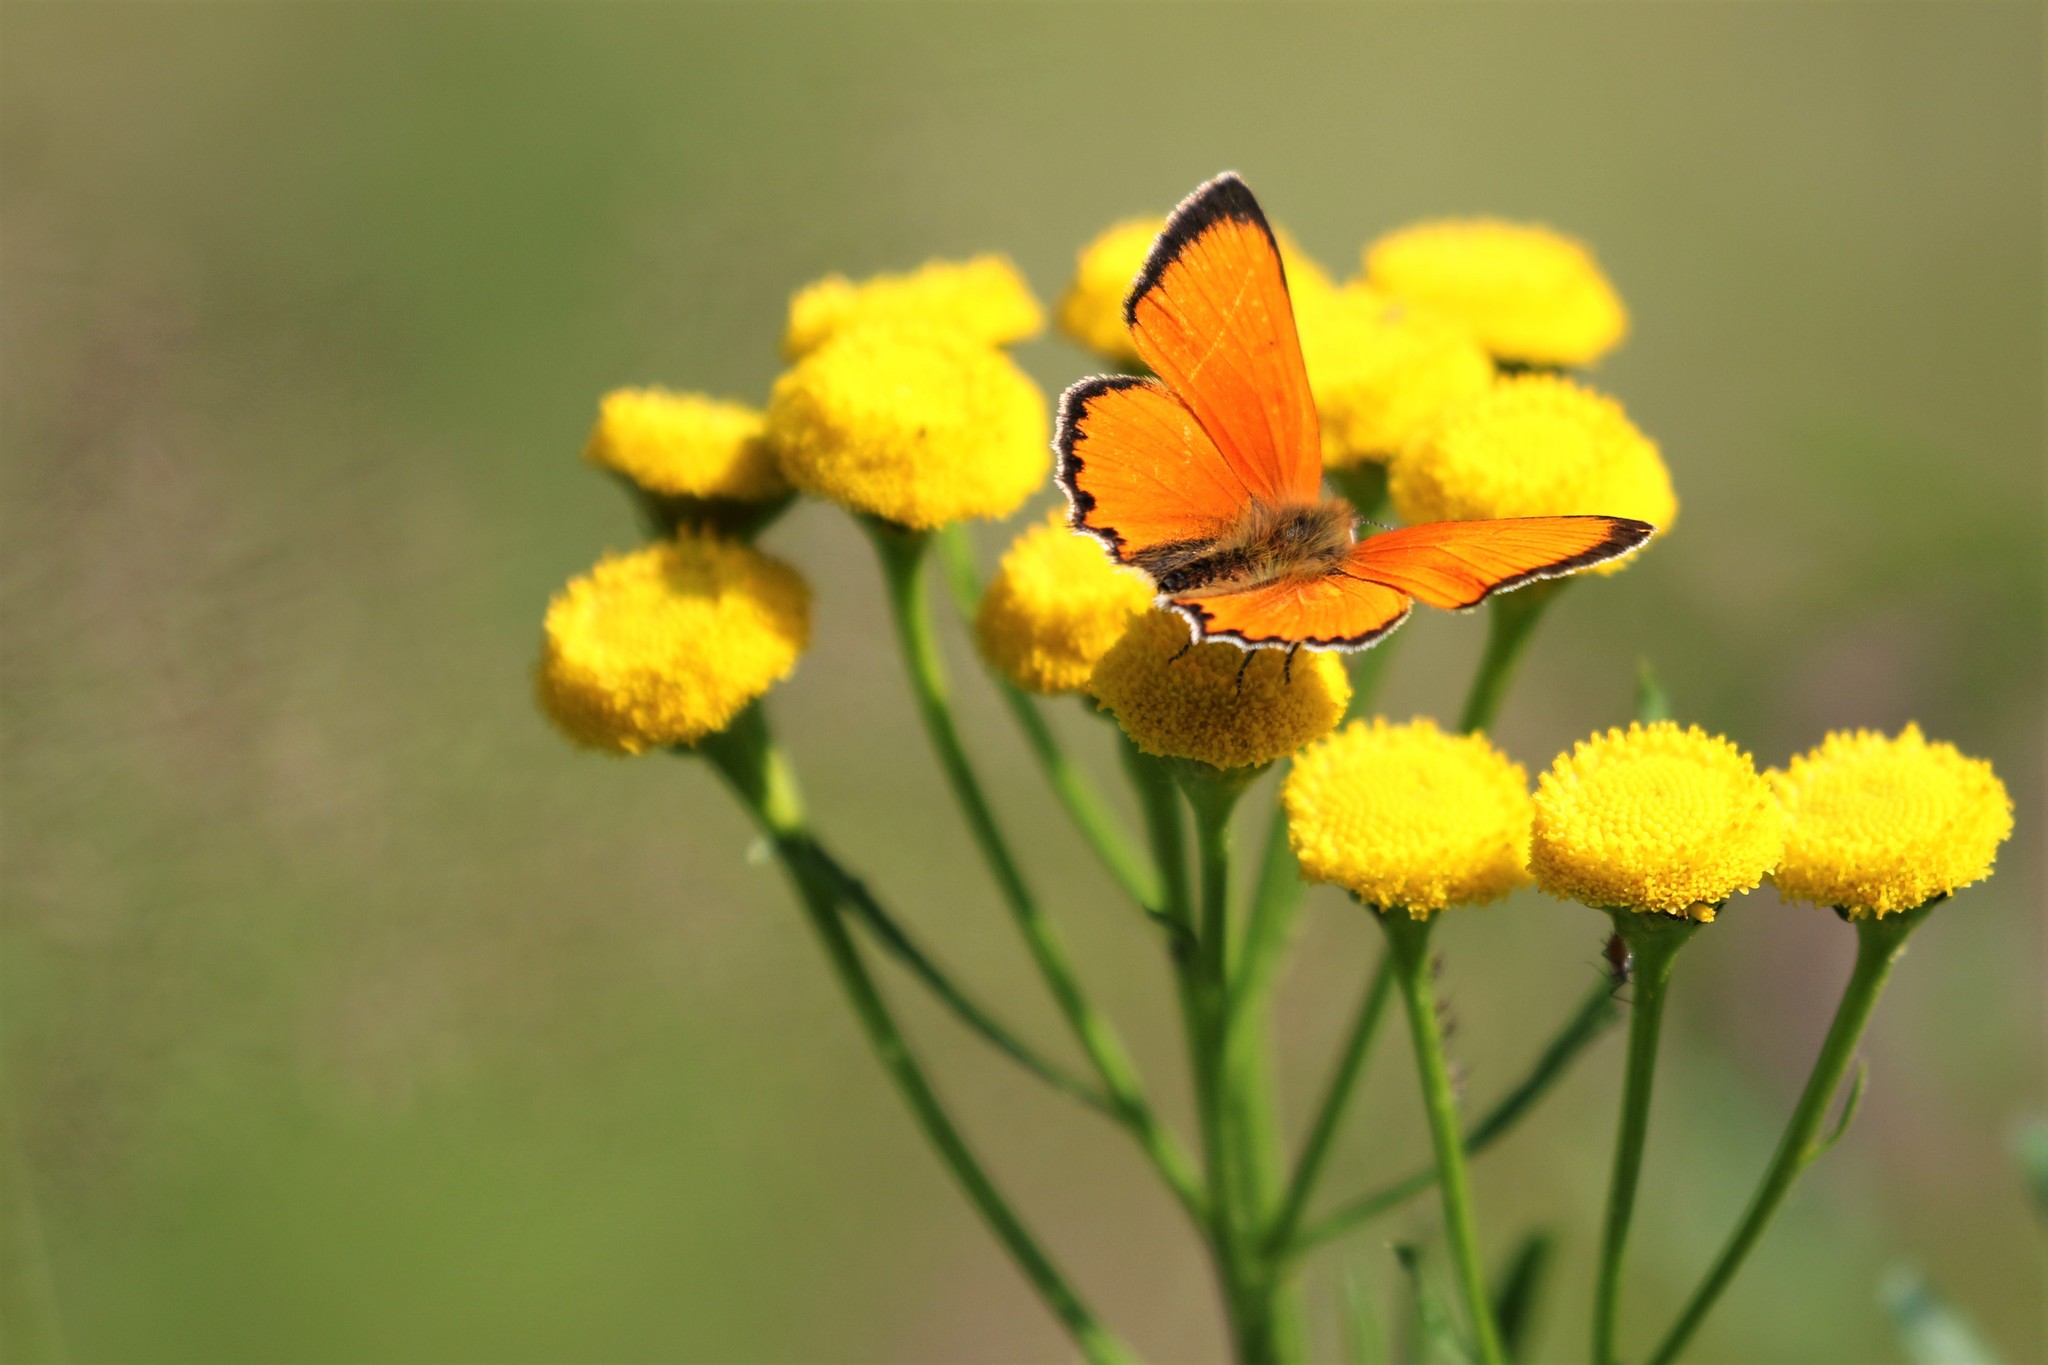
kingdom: Animalia
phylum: Arthropoda
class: Insecta
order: Lepidoptera
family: Lycaenidae
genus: Lycaena
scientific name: Lycaena virgaureae
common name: Scarce copper
